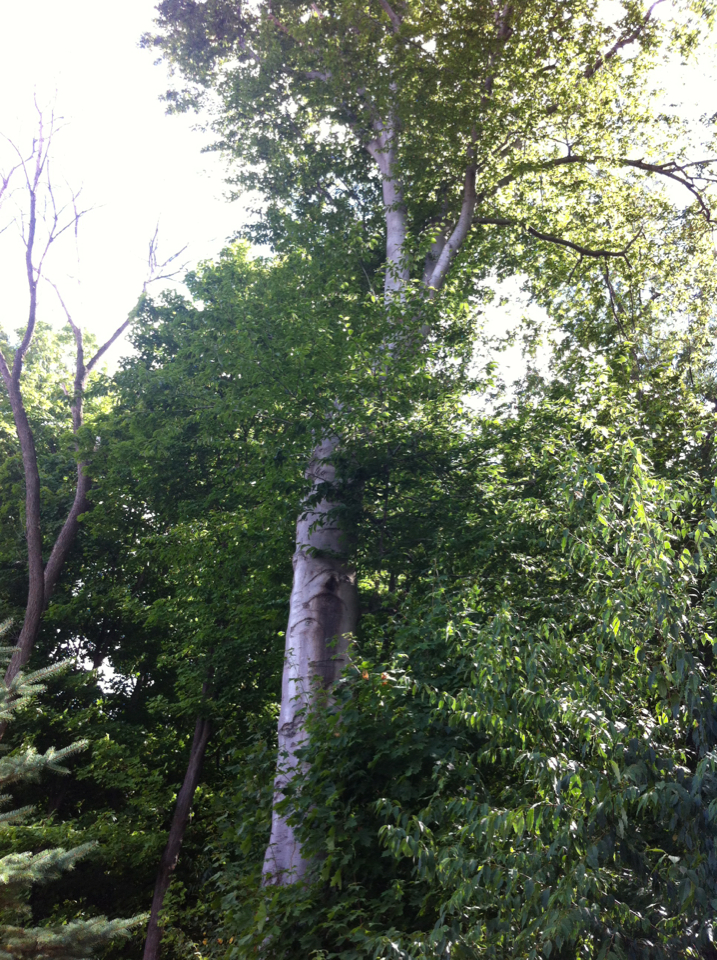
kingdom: Plantae
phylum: Tracheophyta
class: Magnoliopsida
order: Fagales
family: Fagaceae
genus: Fagus
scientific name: Fagus grandifolia
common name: American beech
